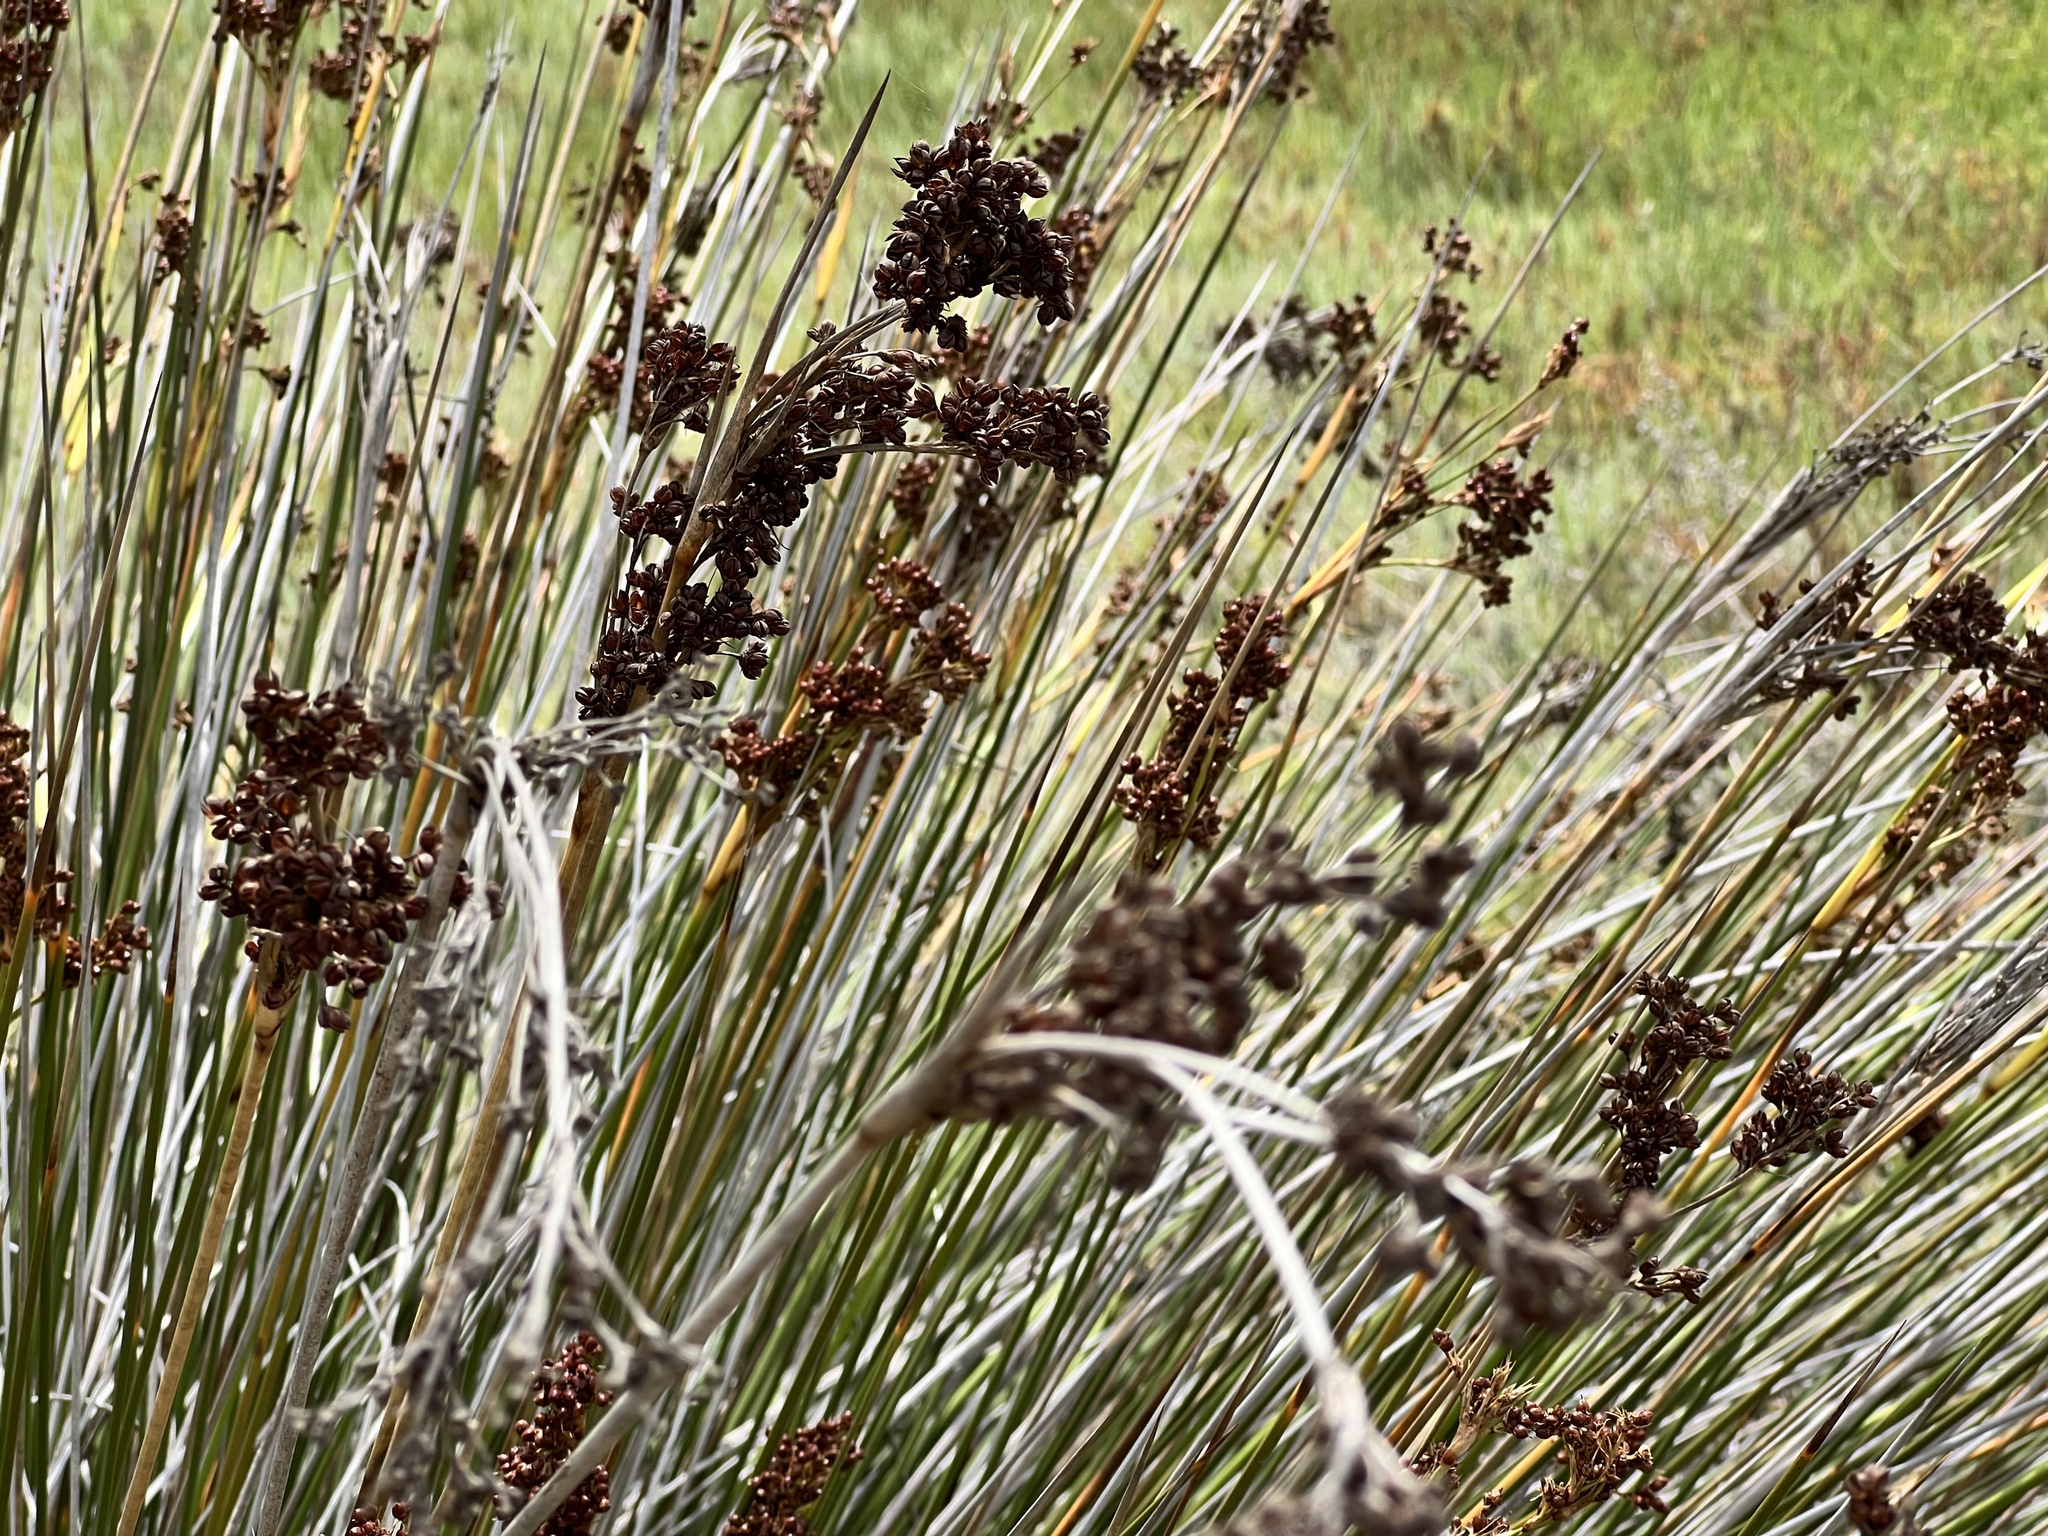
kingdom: Plantae
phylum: Tracheophyta
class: Liliopsida
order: Poales
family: Juncaceae
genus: Juncus
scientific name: Juncus acutus
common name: Sharp rush
